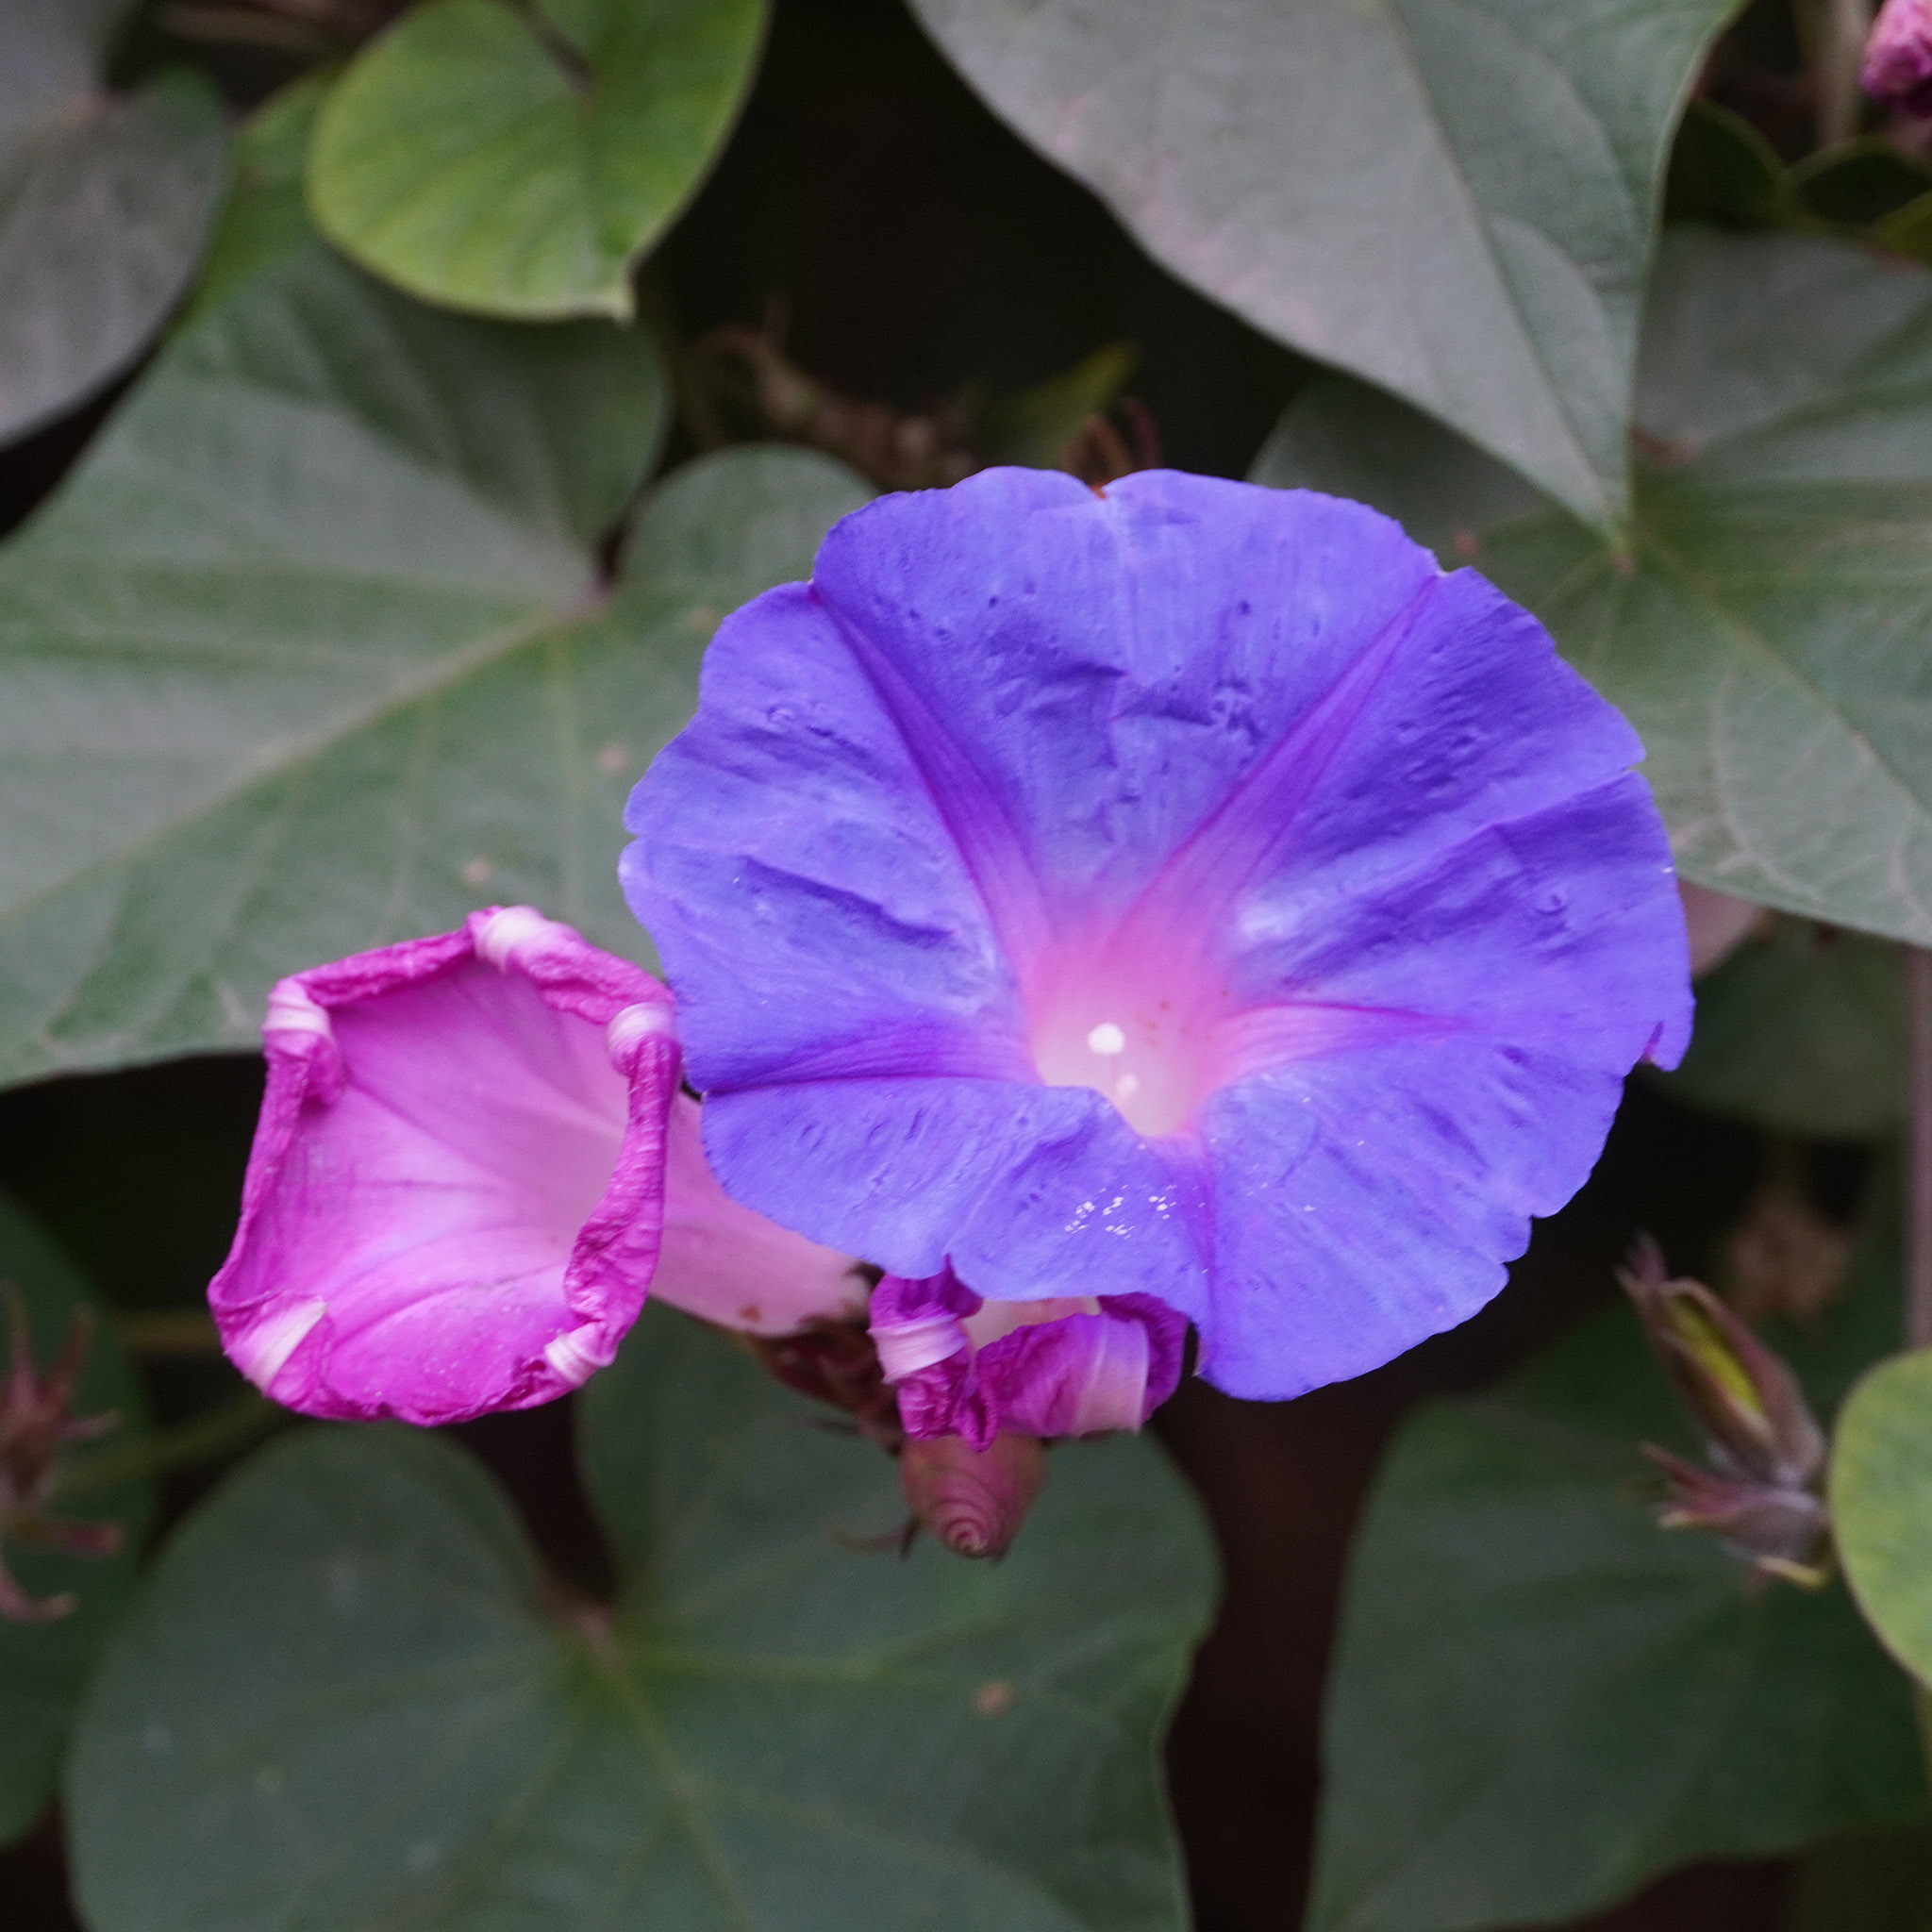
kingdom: Plantae
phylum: Tracheophyta
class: Magnoliopsida
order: Solanales
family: Convolvulaceae
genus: Ipomoea
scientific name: Ipomoea indica
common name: Blue dawnflower
